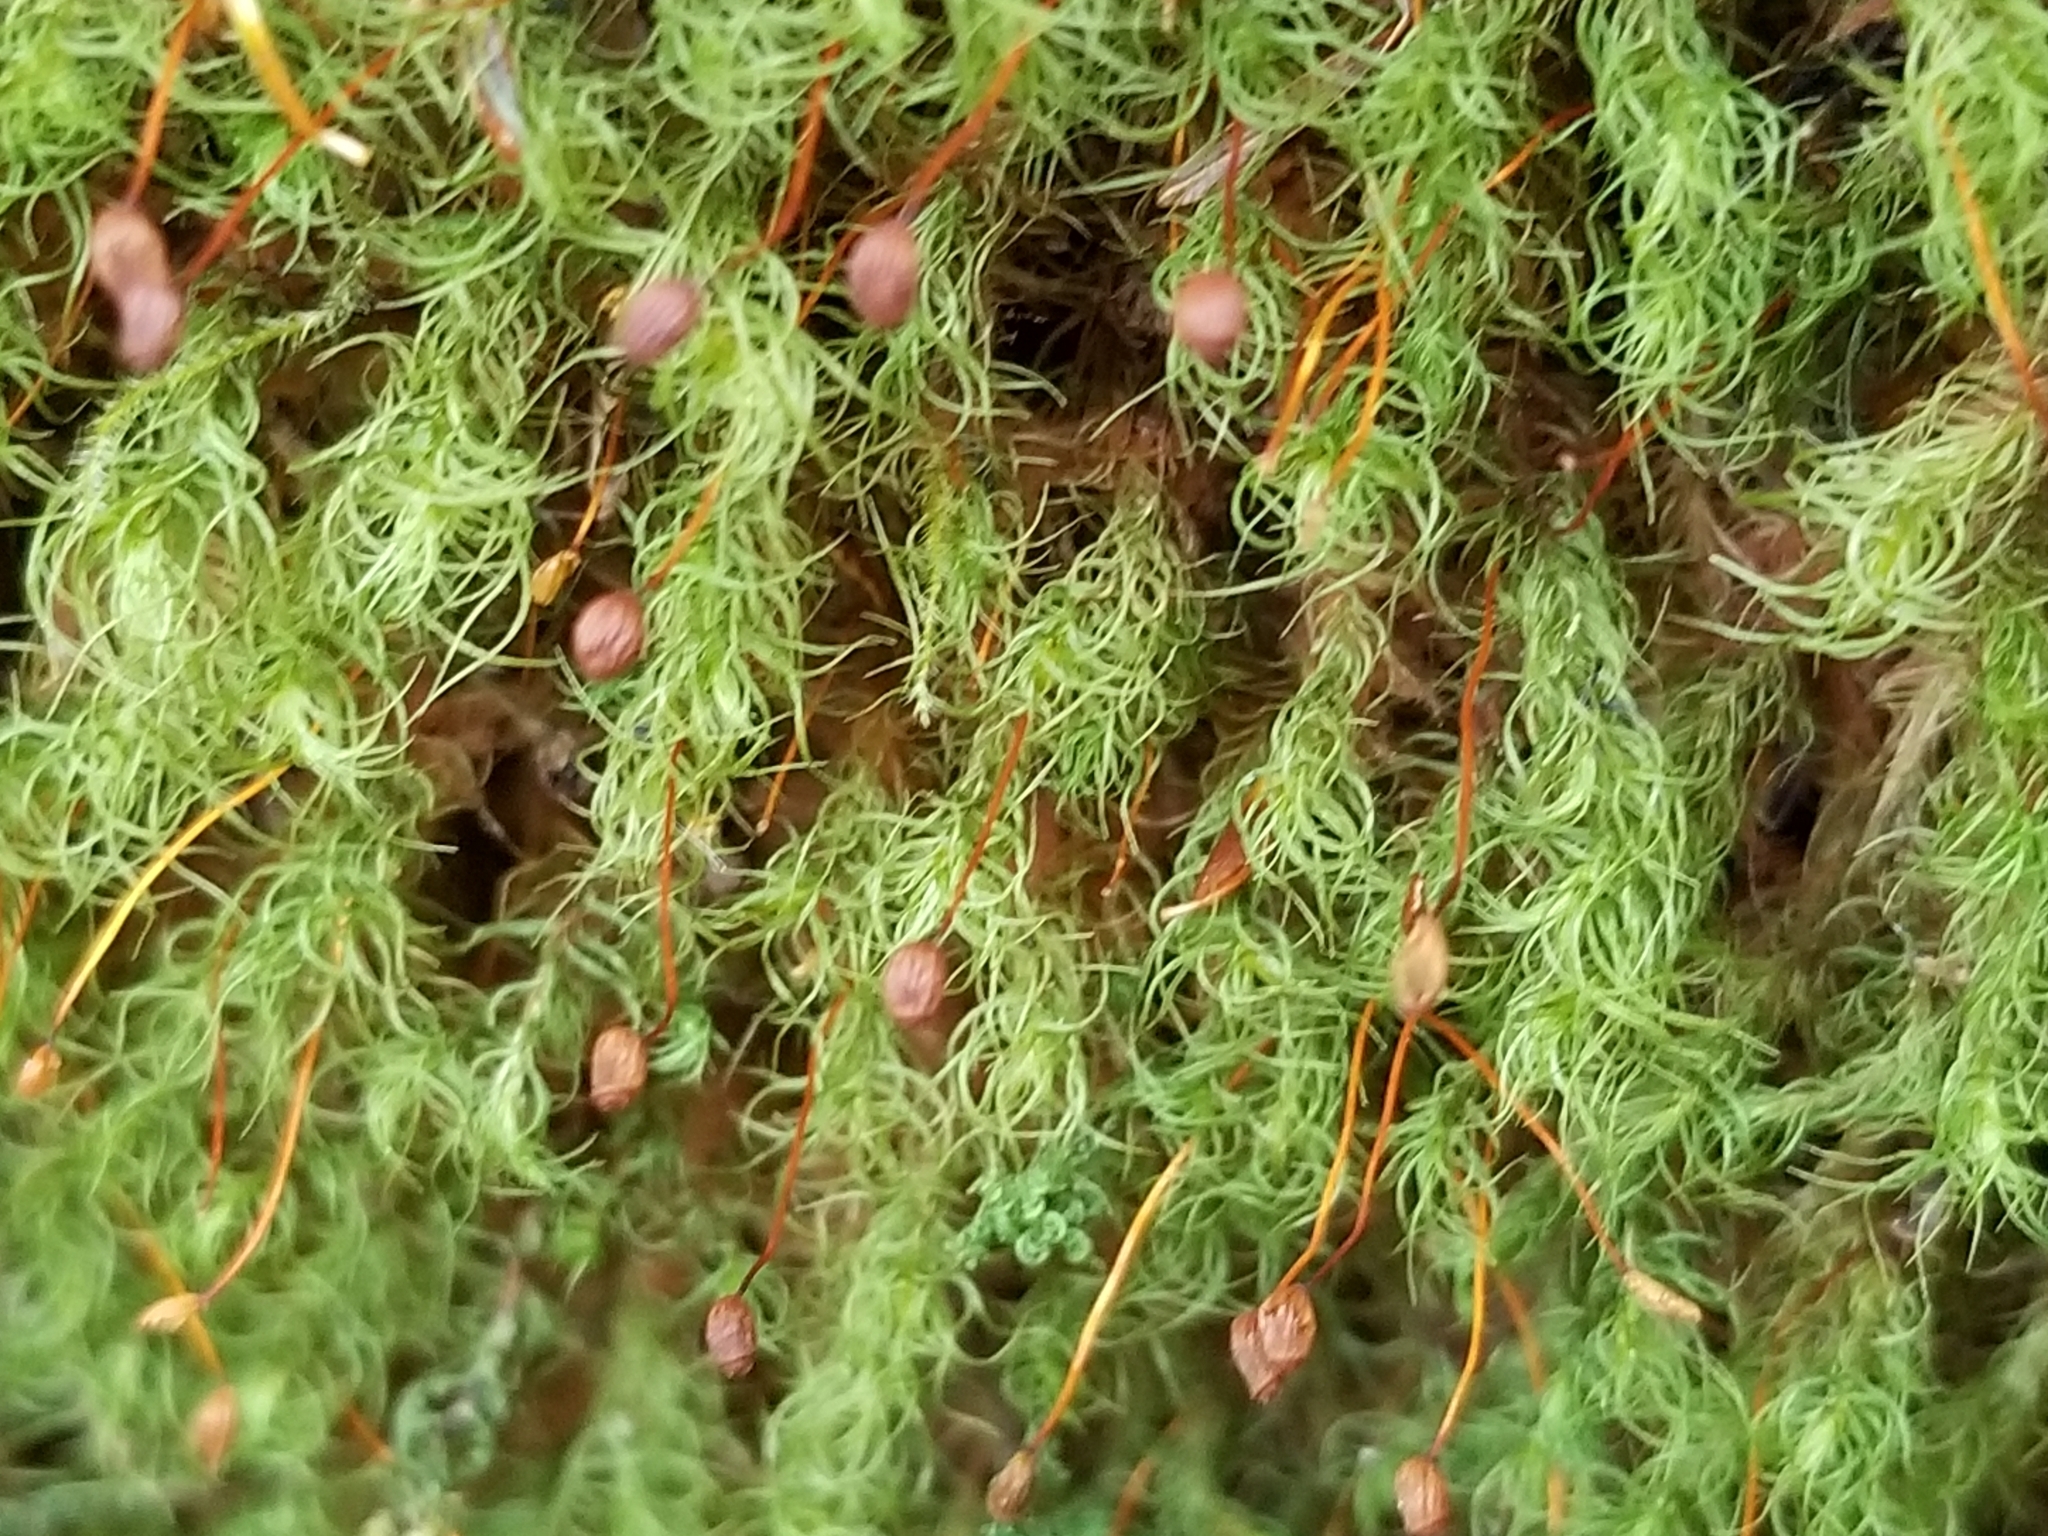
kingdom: Plantae
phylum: Bryophyta
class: Bryopsida
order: Bartramiales
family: Bartramiaceae
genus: Bartramia
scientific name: Bartramia ithyphylla
